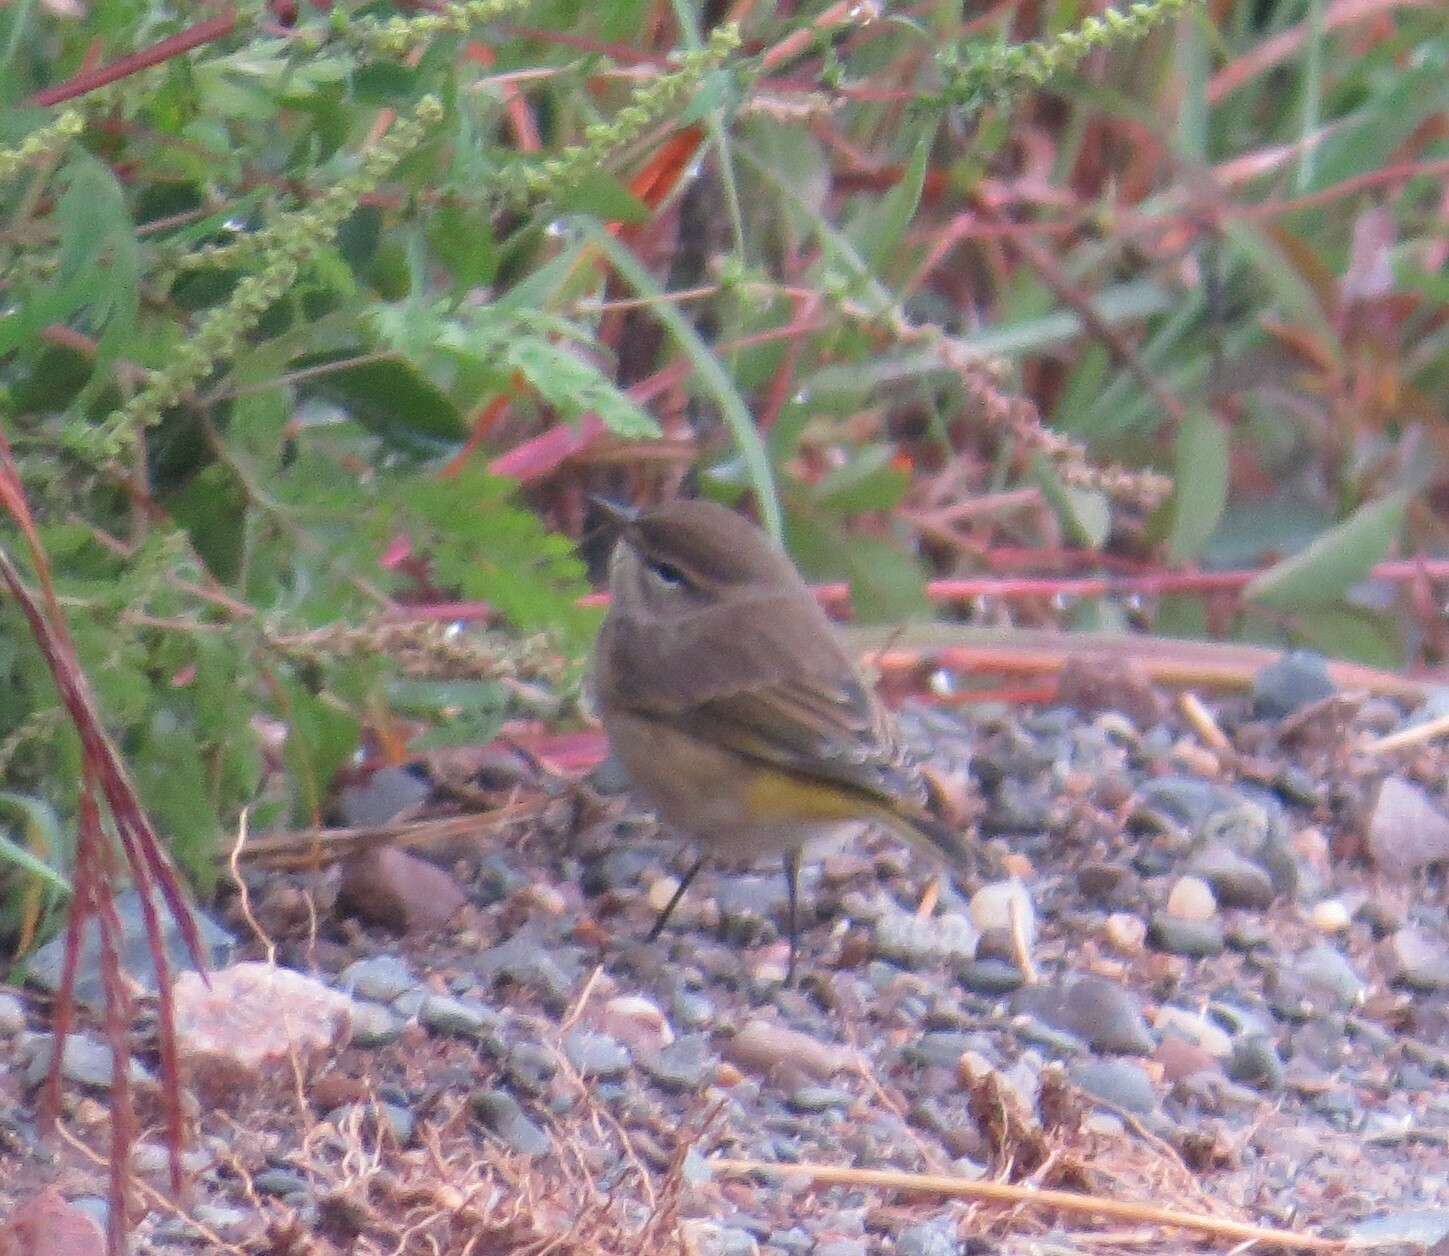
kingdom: Animalia
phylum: Chordata
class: Aves
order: Passeriformes
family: Parulidae
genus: Setophaga
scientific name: Setophaga palmarum
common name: Palm warbler
